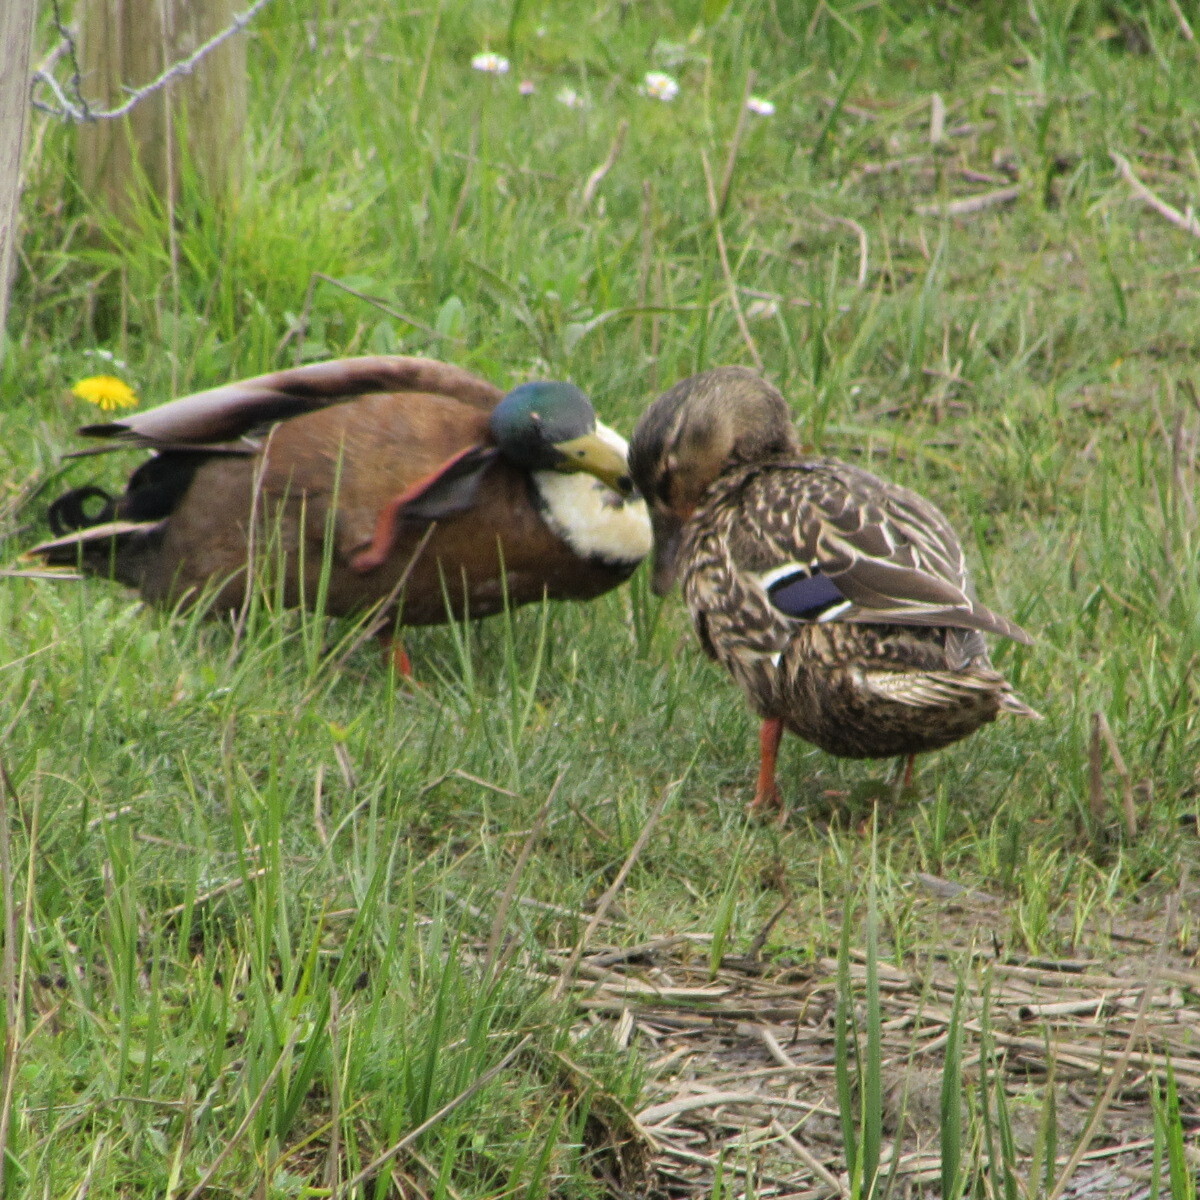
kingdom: Animalia
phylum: Chordata
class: Aves
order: Anseriformes
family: Anatidae
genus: Anas
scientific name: Anas platyrhynchos
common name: Mallard
